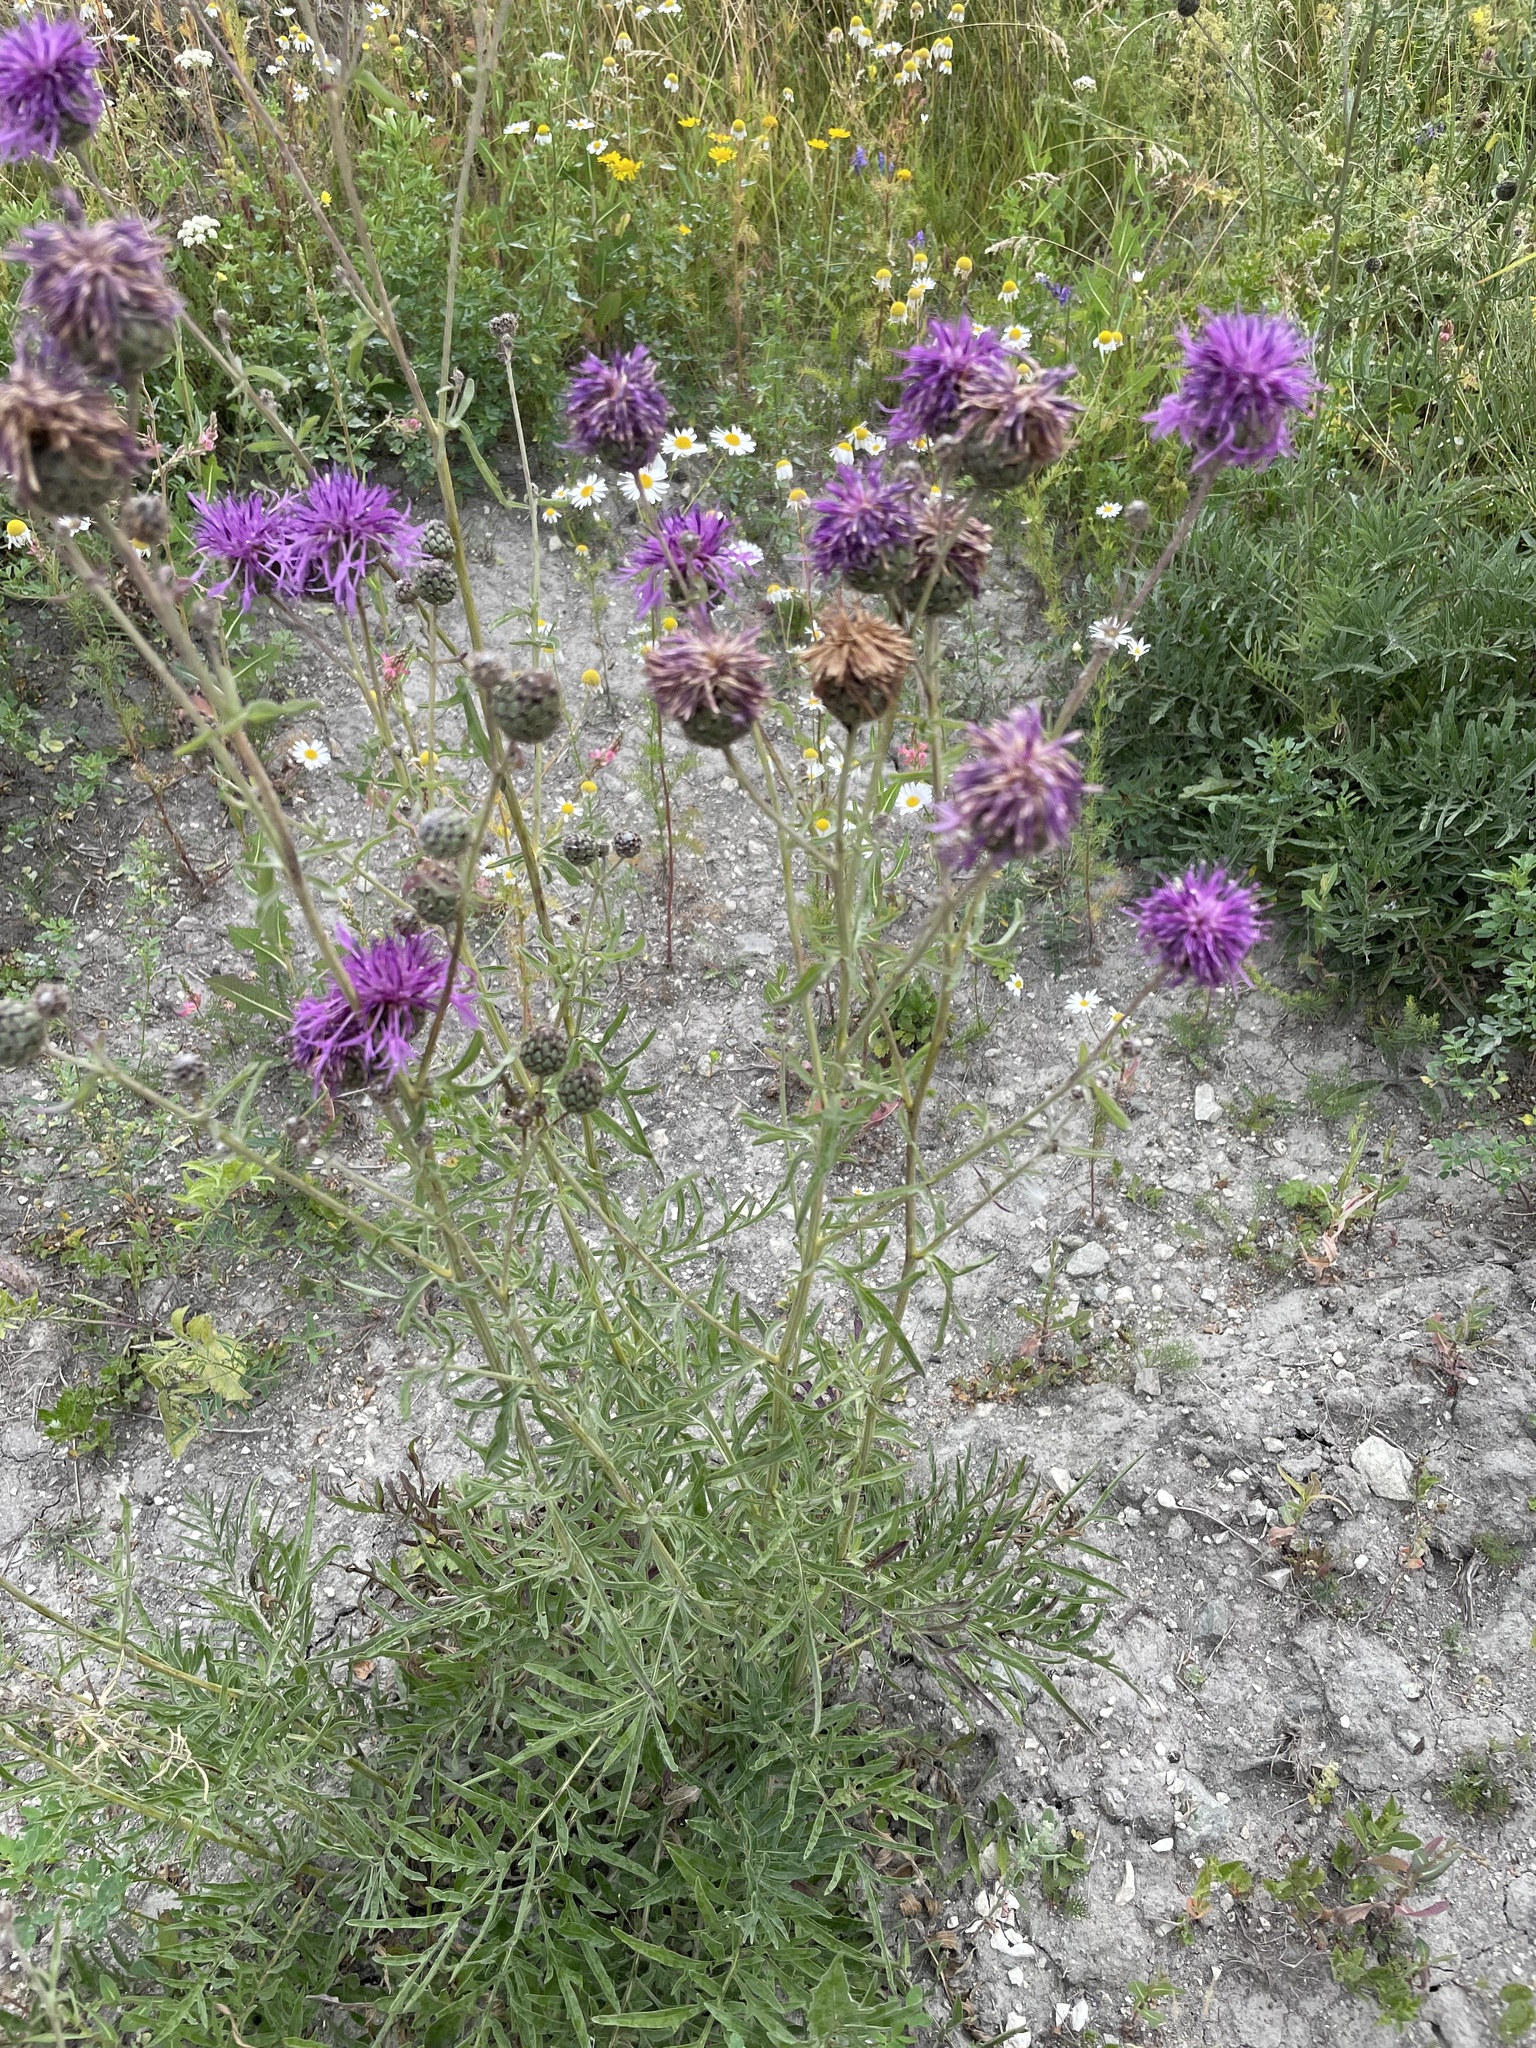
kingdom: Plantae
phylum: Tracheophyta
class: Magnoliopsida
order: Asterales
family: Asteraceae
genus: Centaurea
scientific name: Centaurea scabiosa
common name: Greater knapweed
